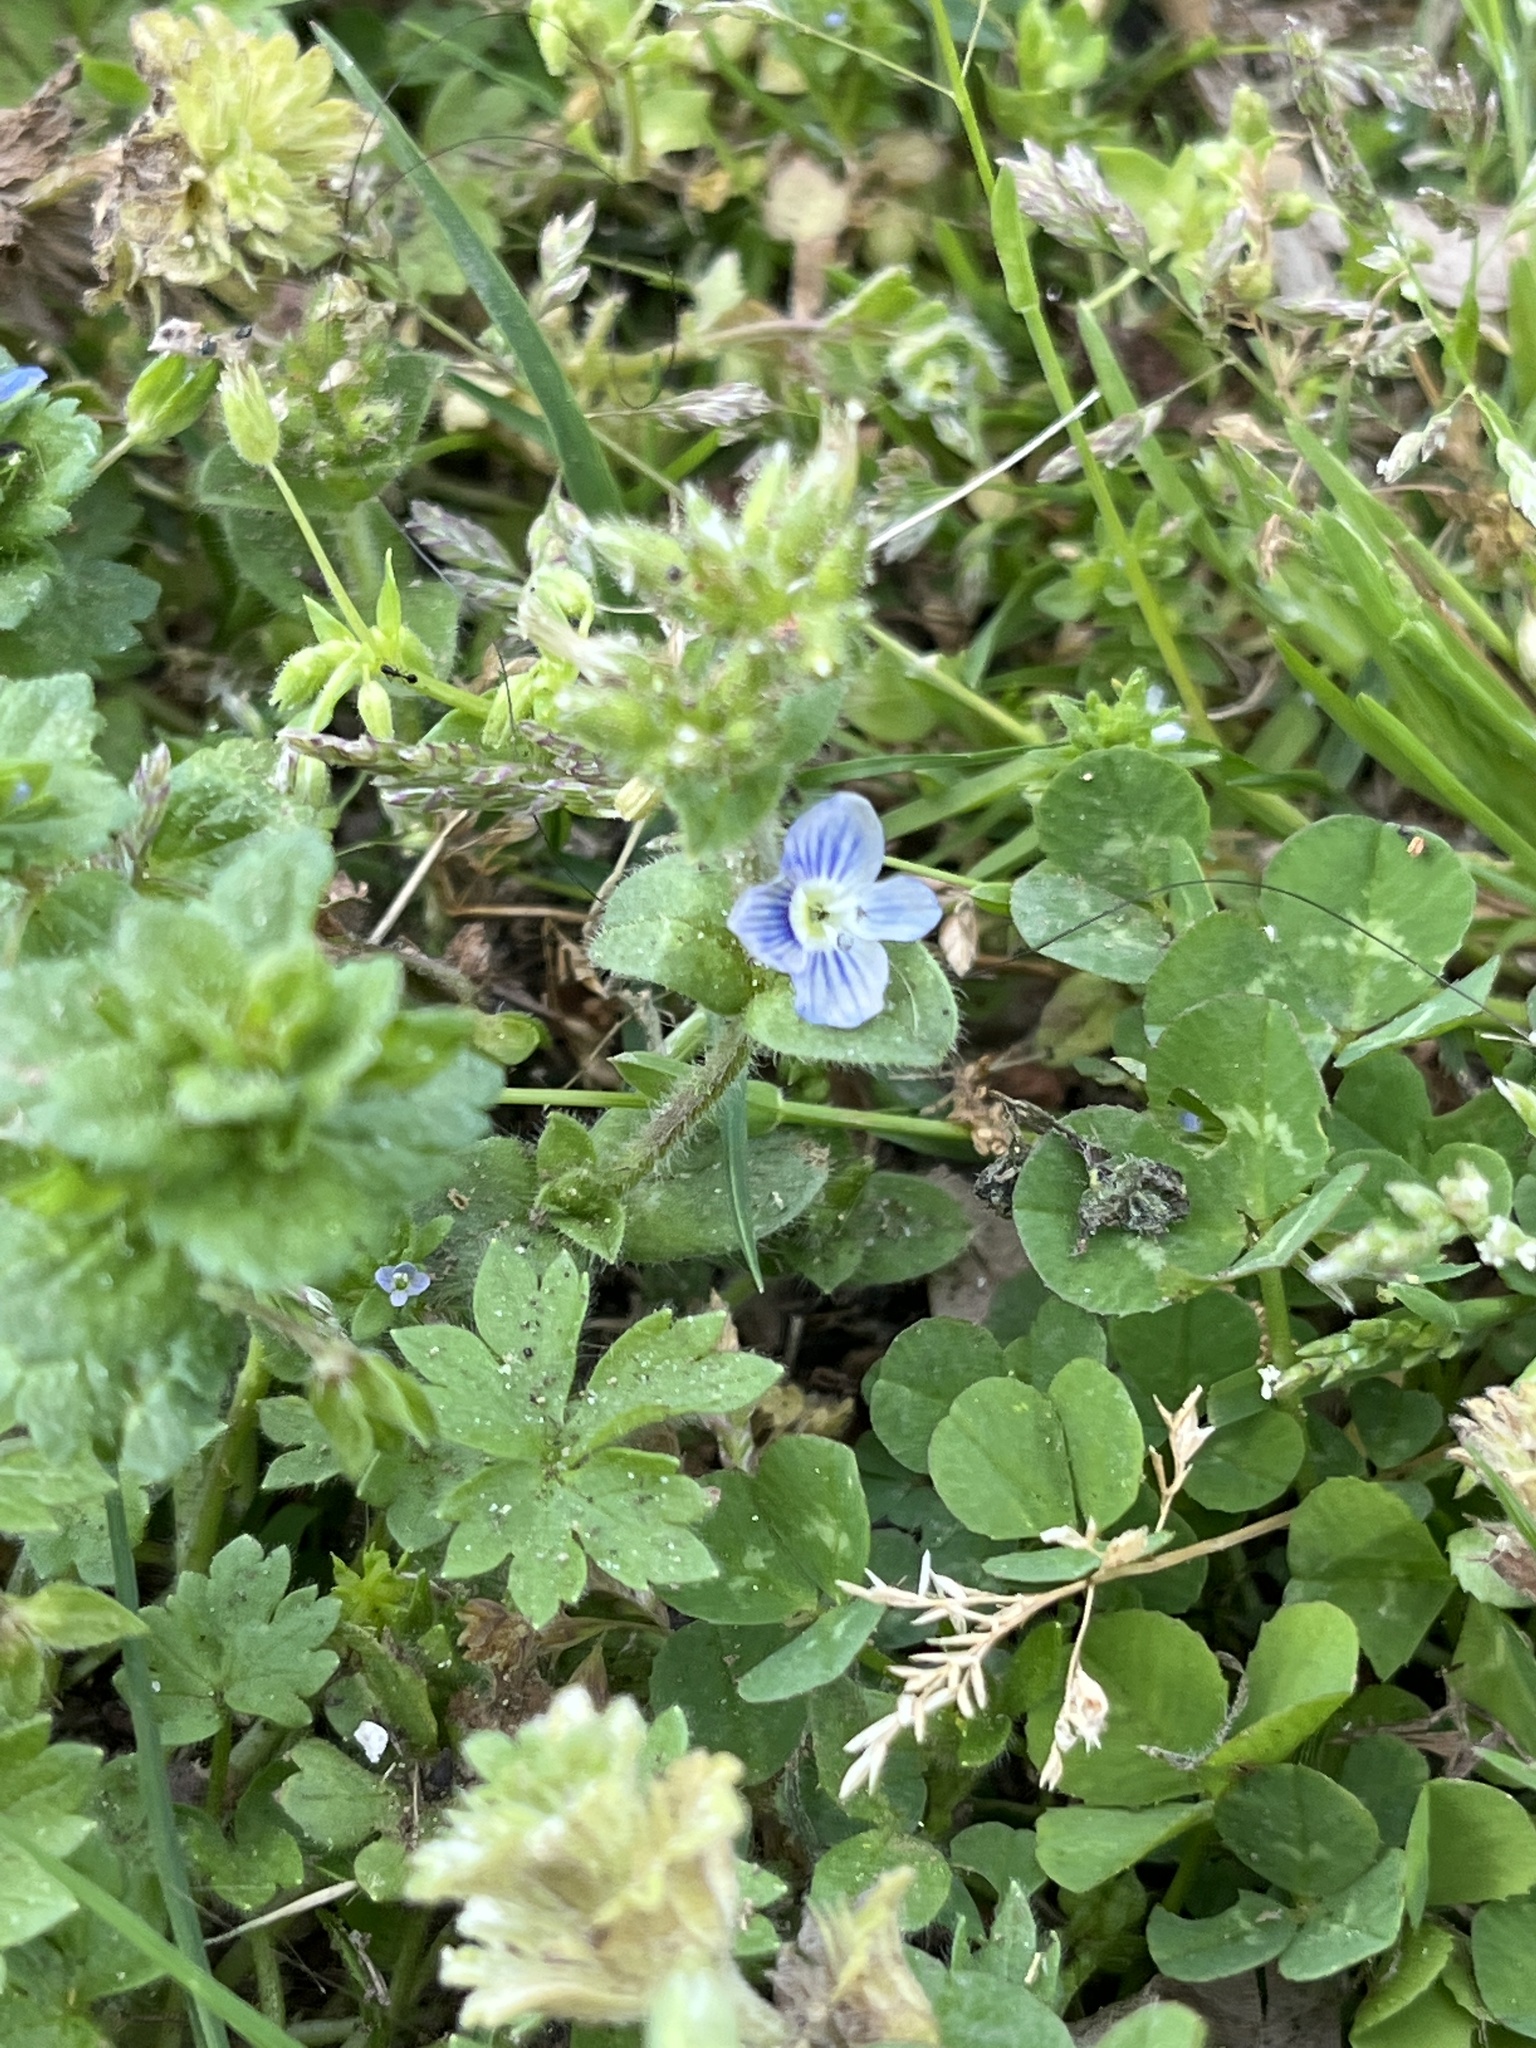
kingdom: Plantae
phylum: Tracheophyta
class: Magnoliopsida
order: Lamiales
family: Plantaginaceae
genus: Veronica
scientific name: Veronica persica
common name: Common field-speedwell
